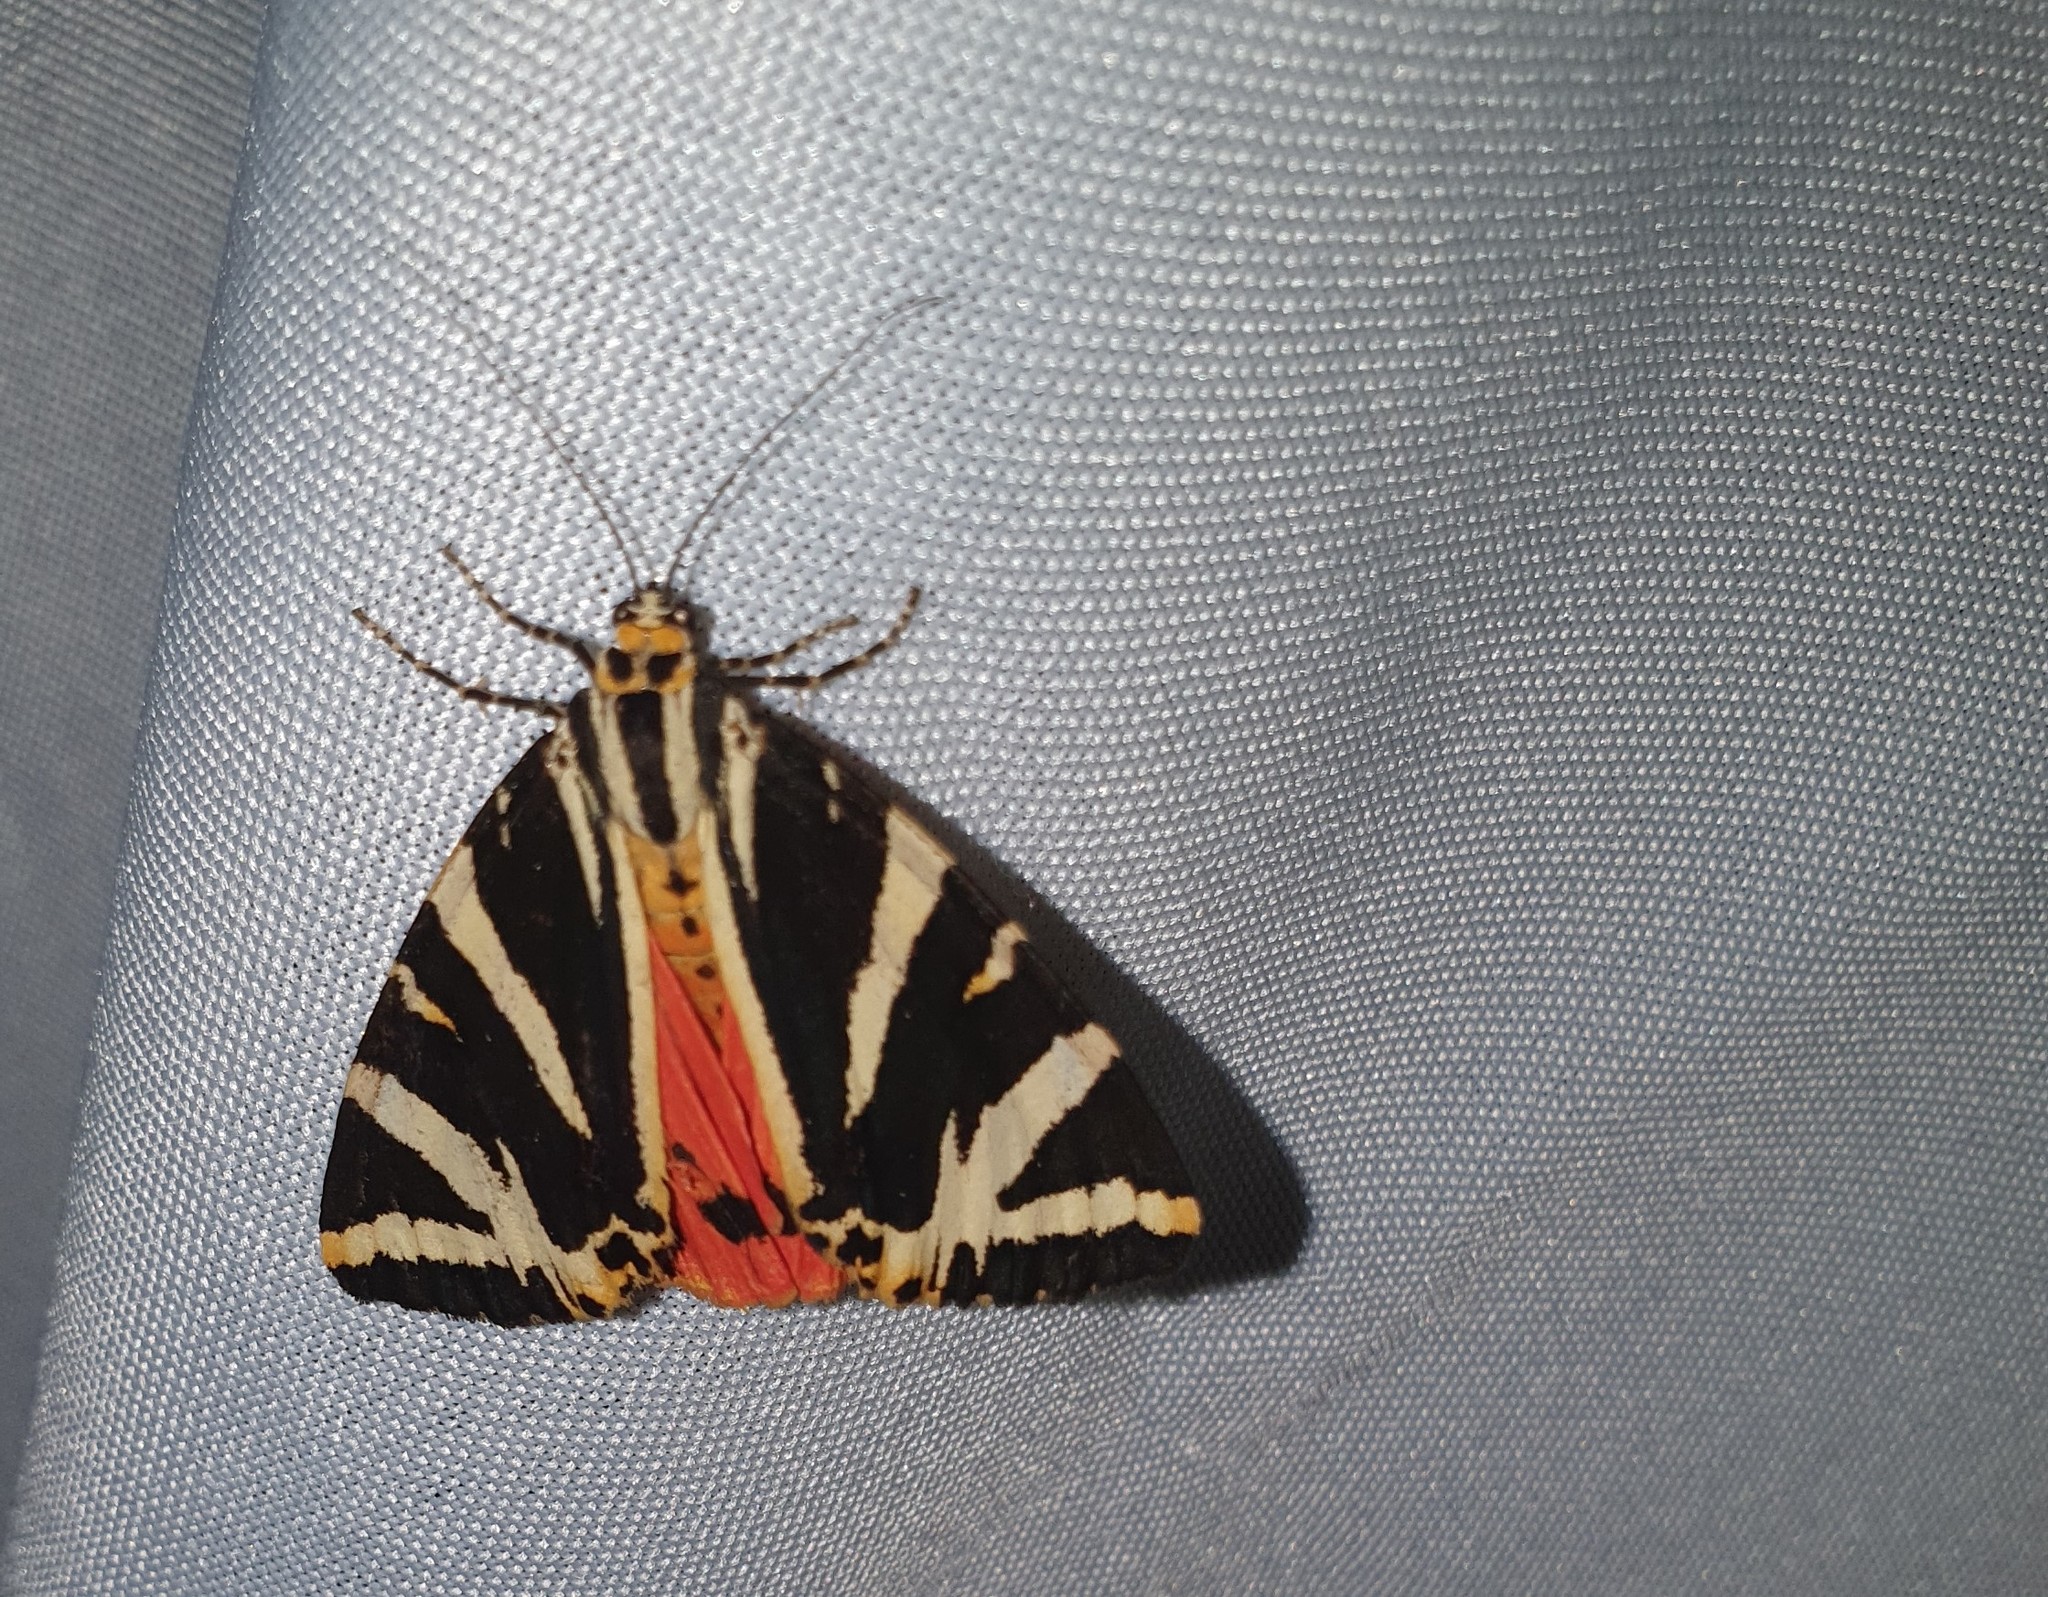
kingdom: Animalia
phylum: Arthropoda
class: Insecta
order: Lepidoptera
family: Erebidae
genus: Euplagia
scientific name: Euplagia quadripunctaria
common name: Jersey tiger
